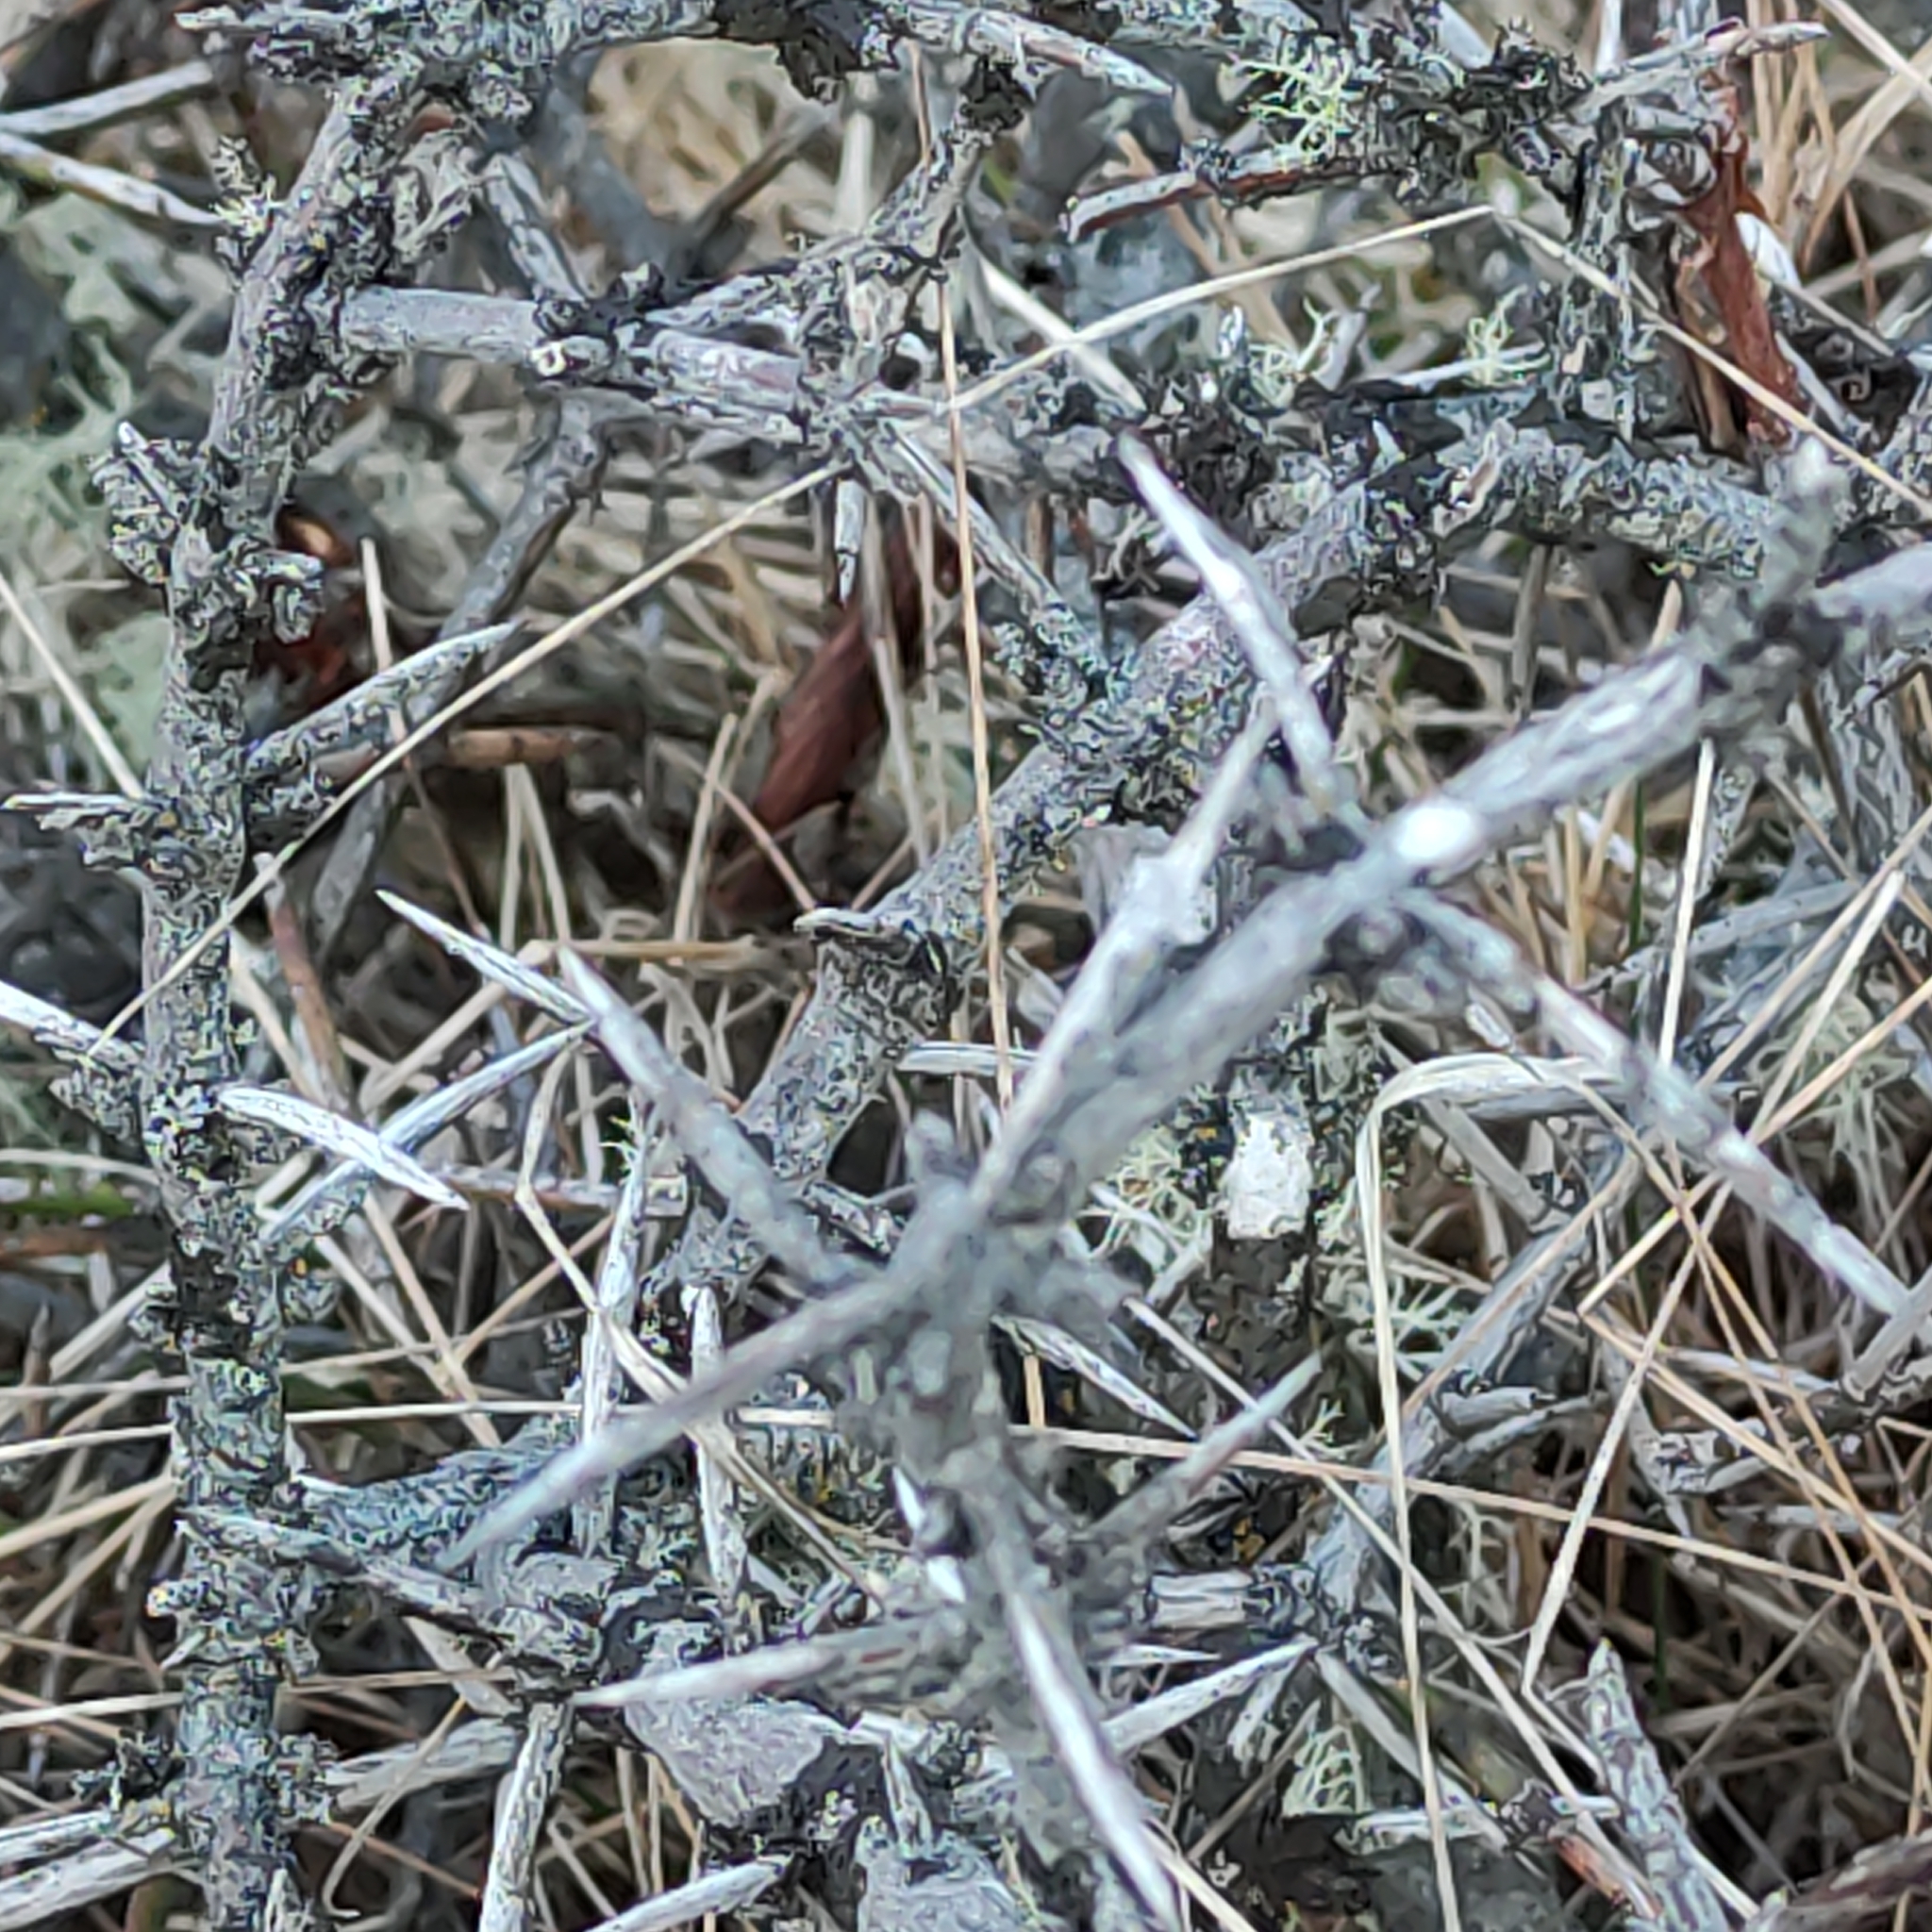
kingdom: Plantae
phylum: Tracheophyta
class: Magnoliopsida
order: Rosales
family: Rhamnaceae
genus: Discaria
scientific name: Discaria toumatou
